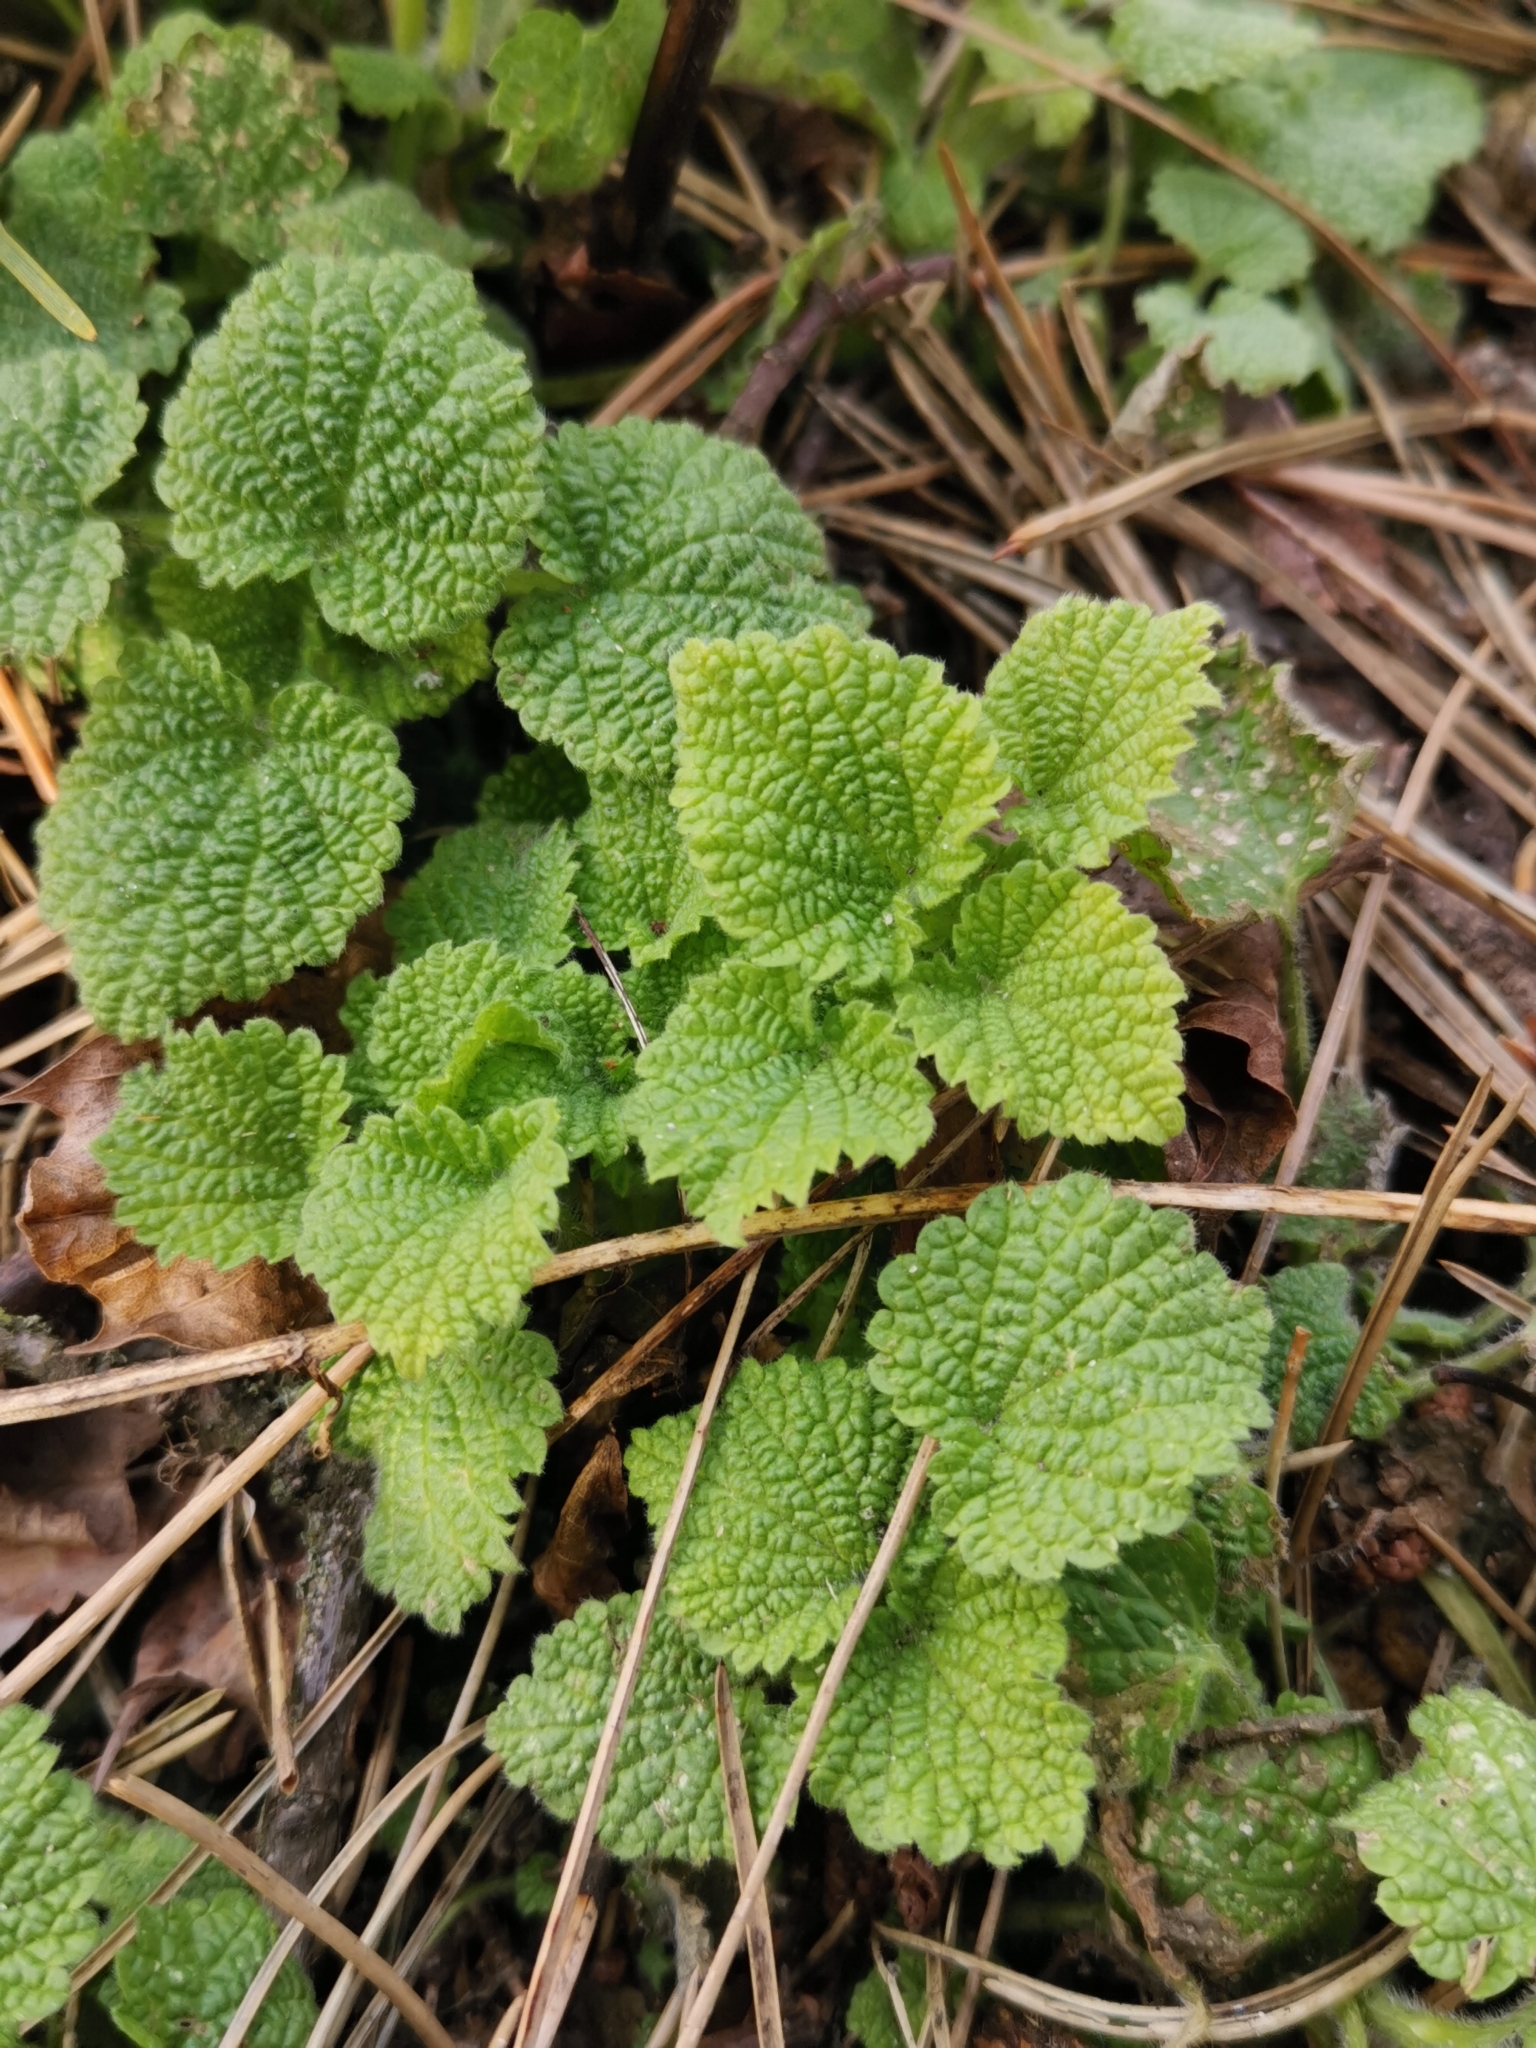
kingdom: Plantae
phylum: Tracheophyta
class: Magnoliopsida
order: Lamiales
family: Lamiaceae
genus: Ballota
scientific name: Ballota nigra
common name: Black horehound
